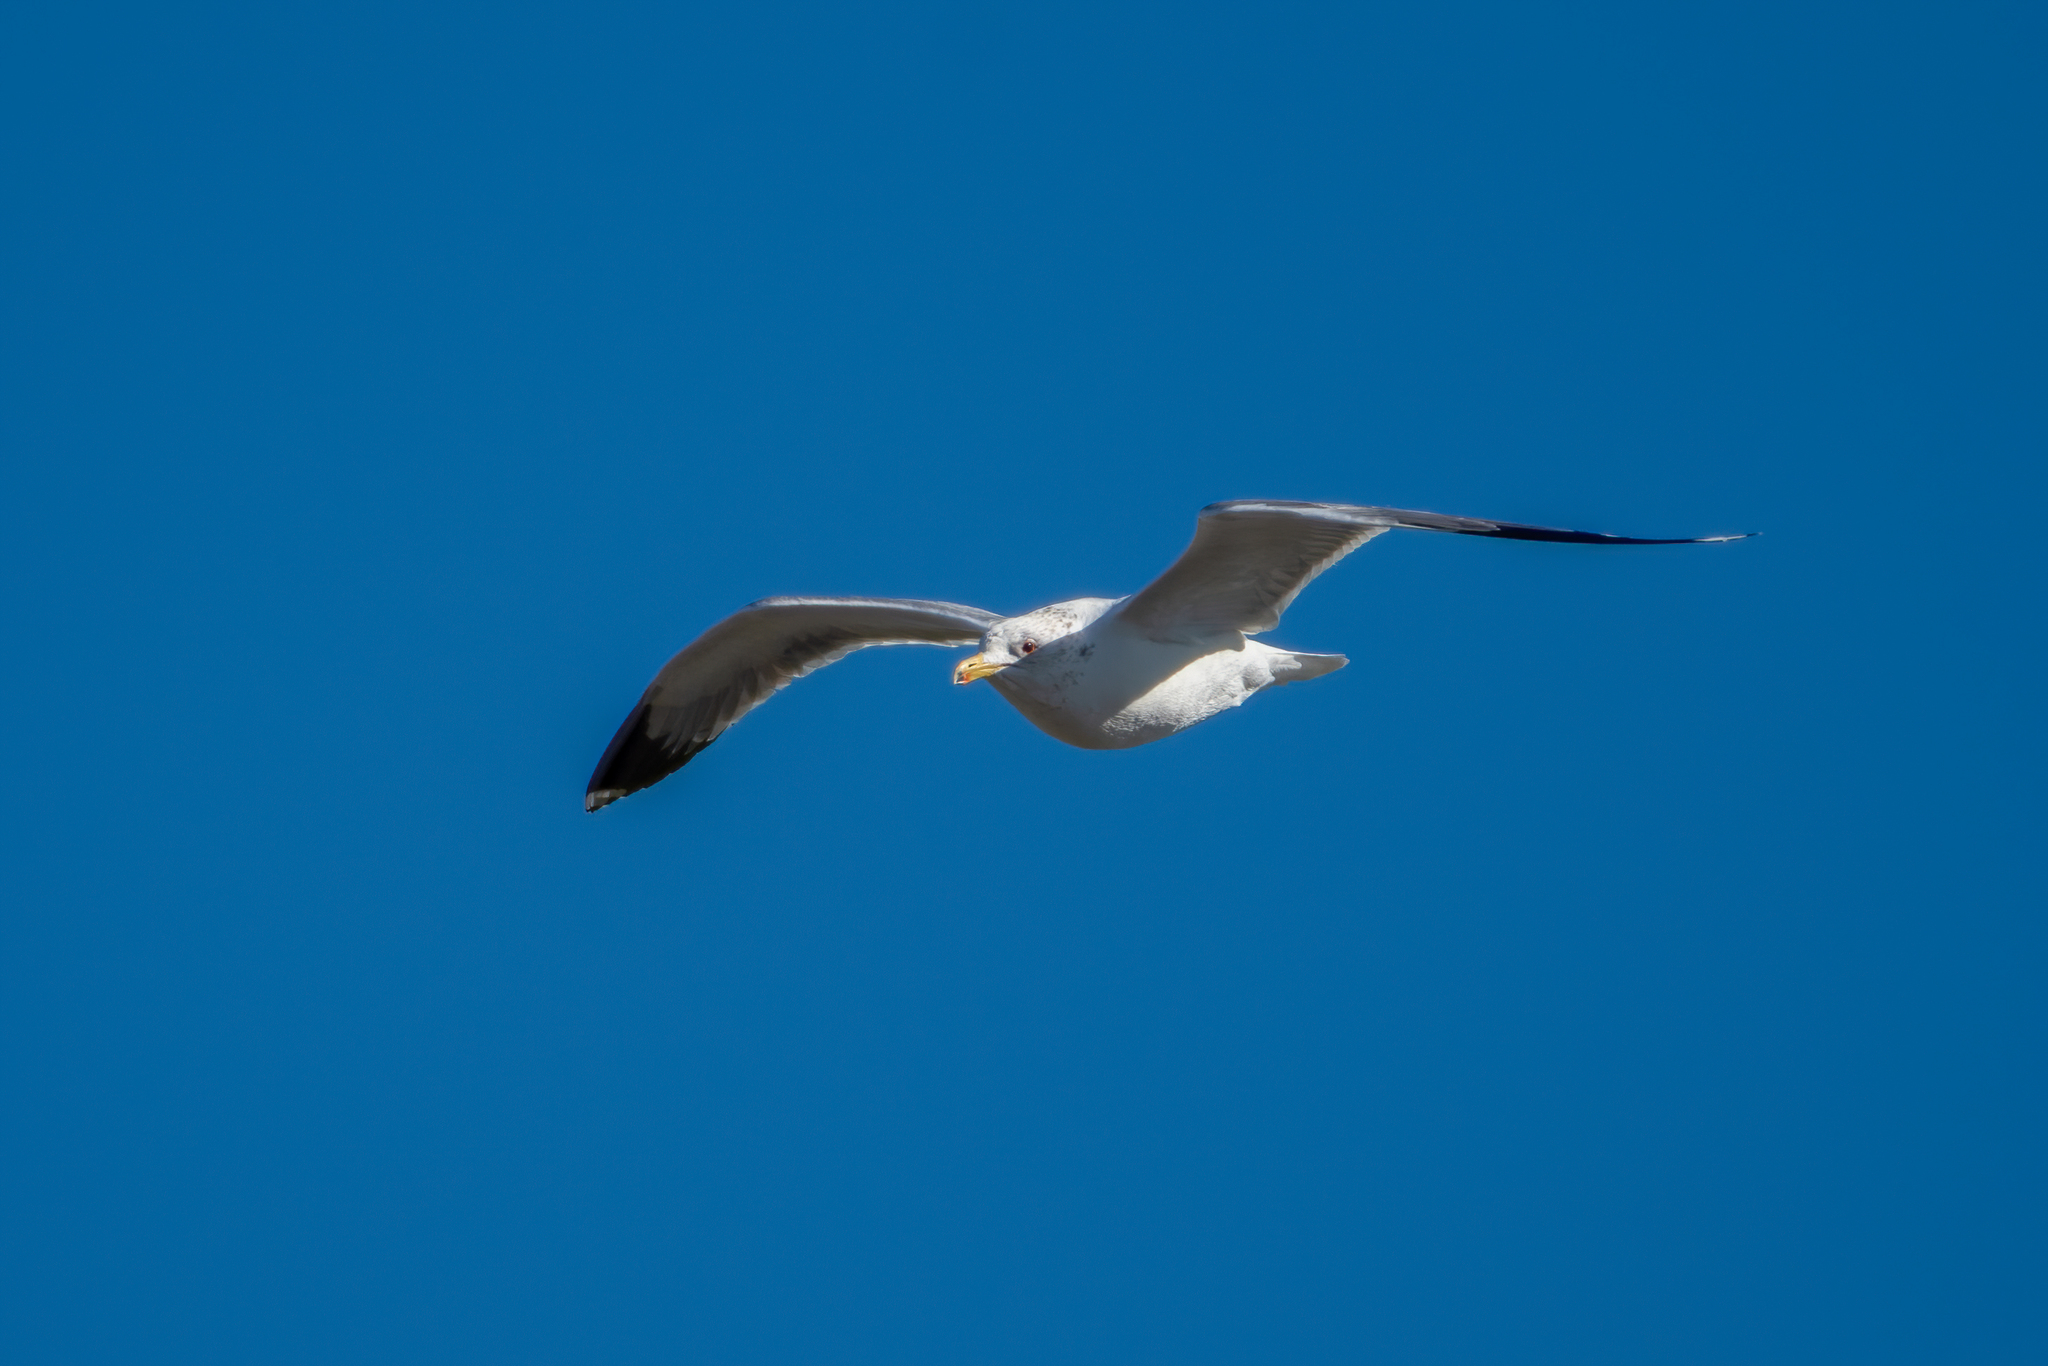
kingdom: Animalia
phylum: Chordata
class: Aves
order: Charadriiformes
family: Laridae
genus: Larus
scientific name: Larus californicus
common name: California gull
